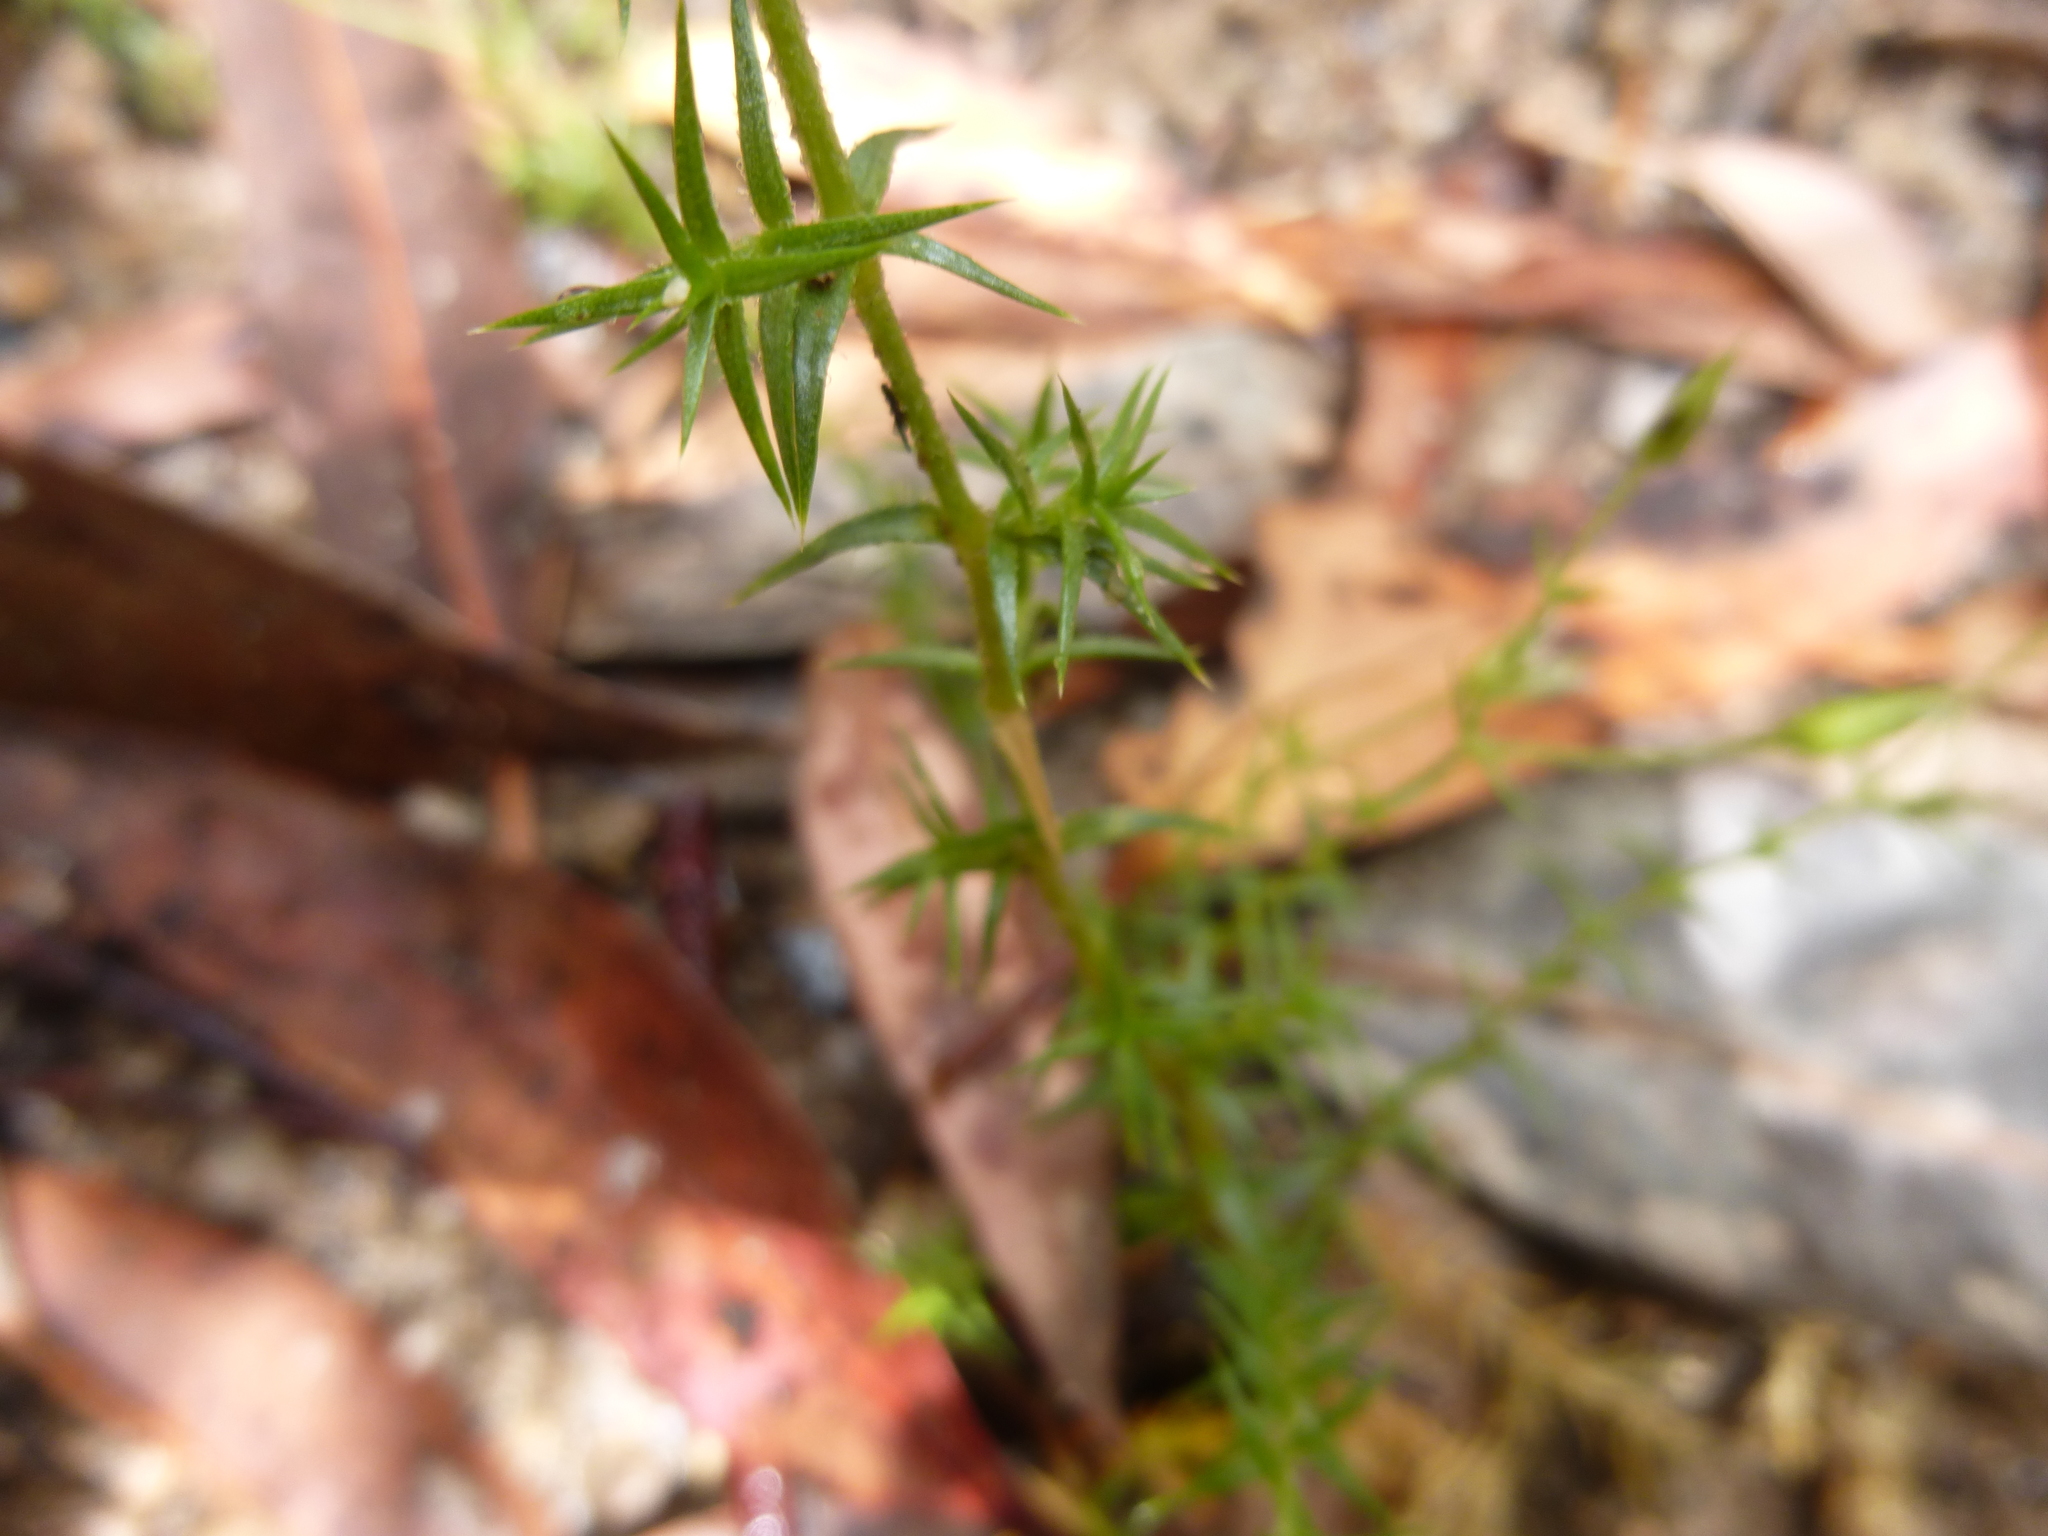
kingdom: Plantae
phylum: Tracheophyta
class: Magnoliopsida
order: Caryophyllales
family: Caryophyllaceae
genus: Stellaria
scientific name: Stellaria pungens
